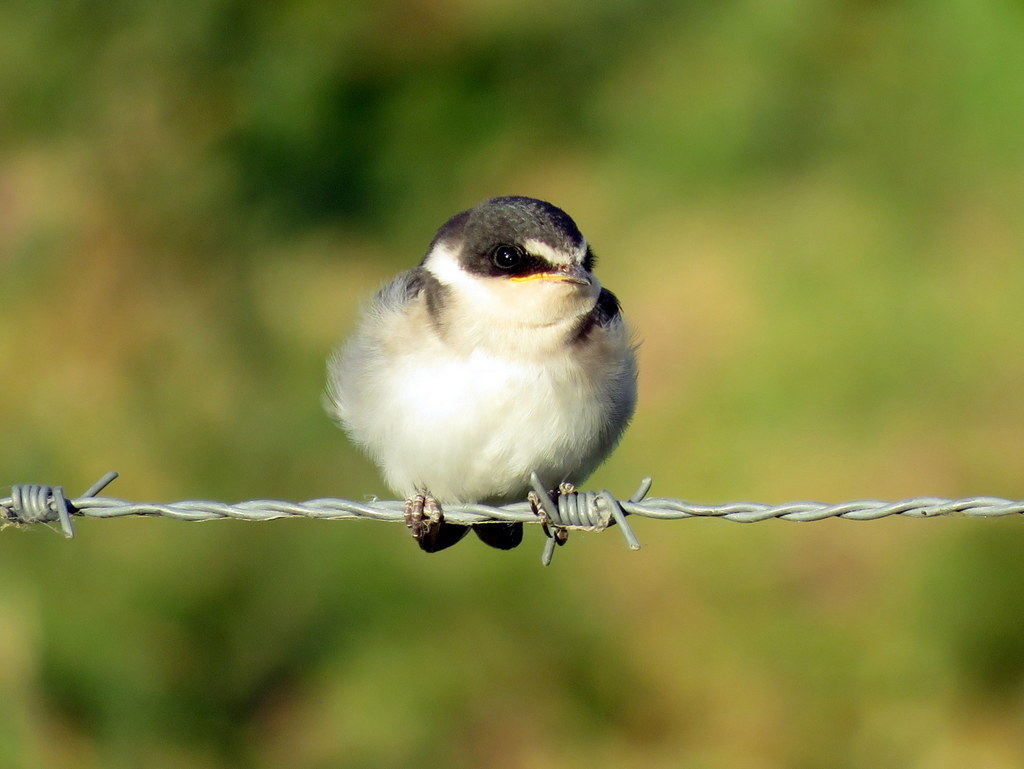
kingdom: Animalia
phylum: Chordata
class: Aves
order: Passeriformes
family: Hirundinidae
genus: Tachycineta
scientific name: Tachycineta leucorrhoa
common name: White-rumped swallow
